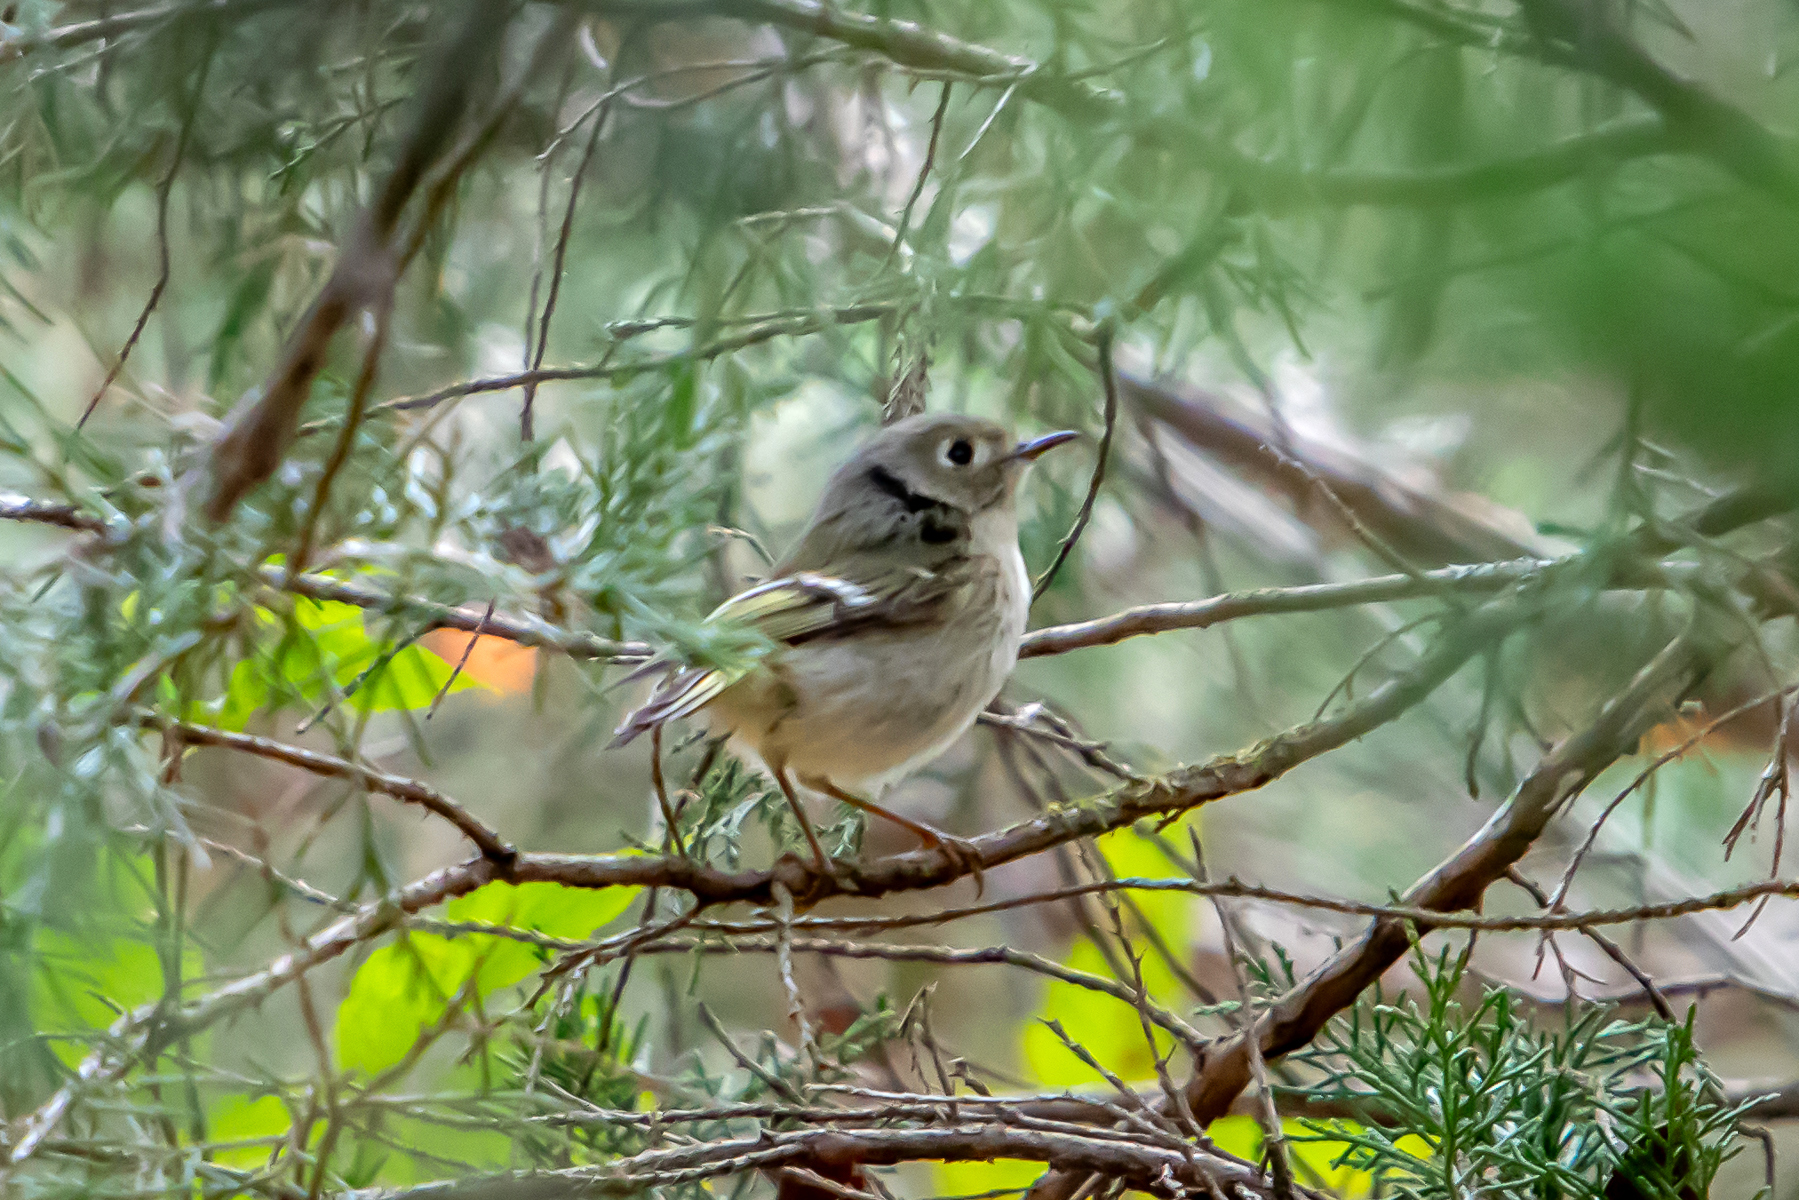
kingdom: Animalia
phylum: Chordata
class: Aves
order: Passeriformes
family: Regulidae
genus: Regulus
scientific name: Regulus calendula
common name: Ruby-crowned kinglet
